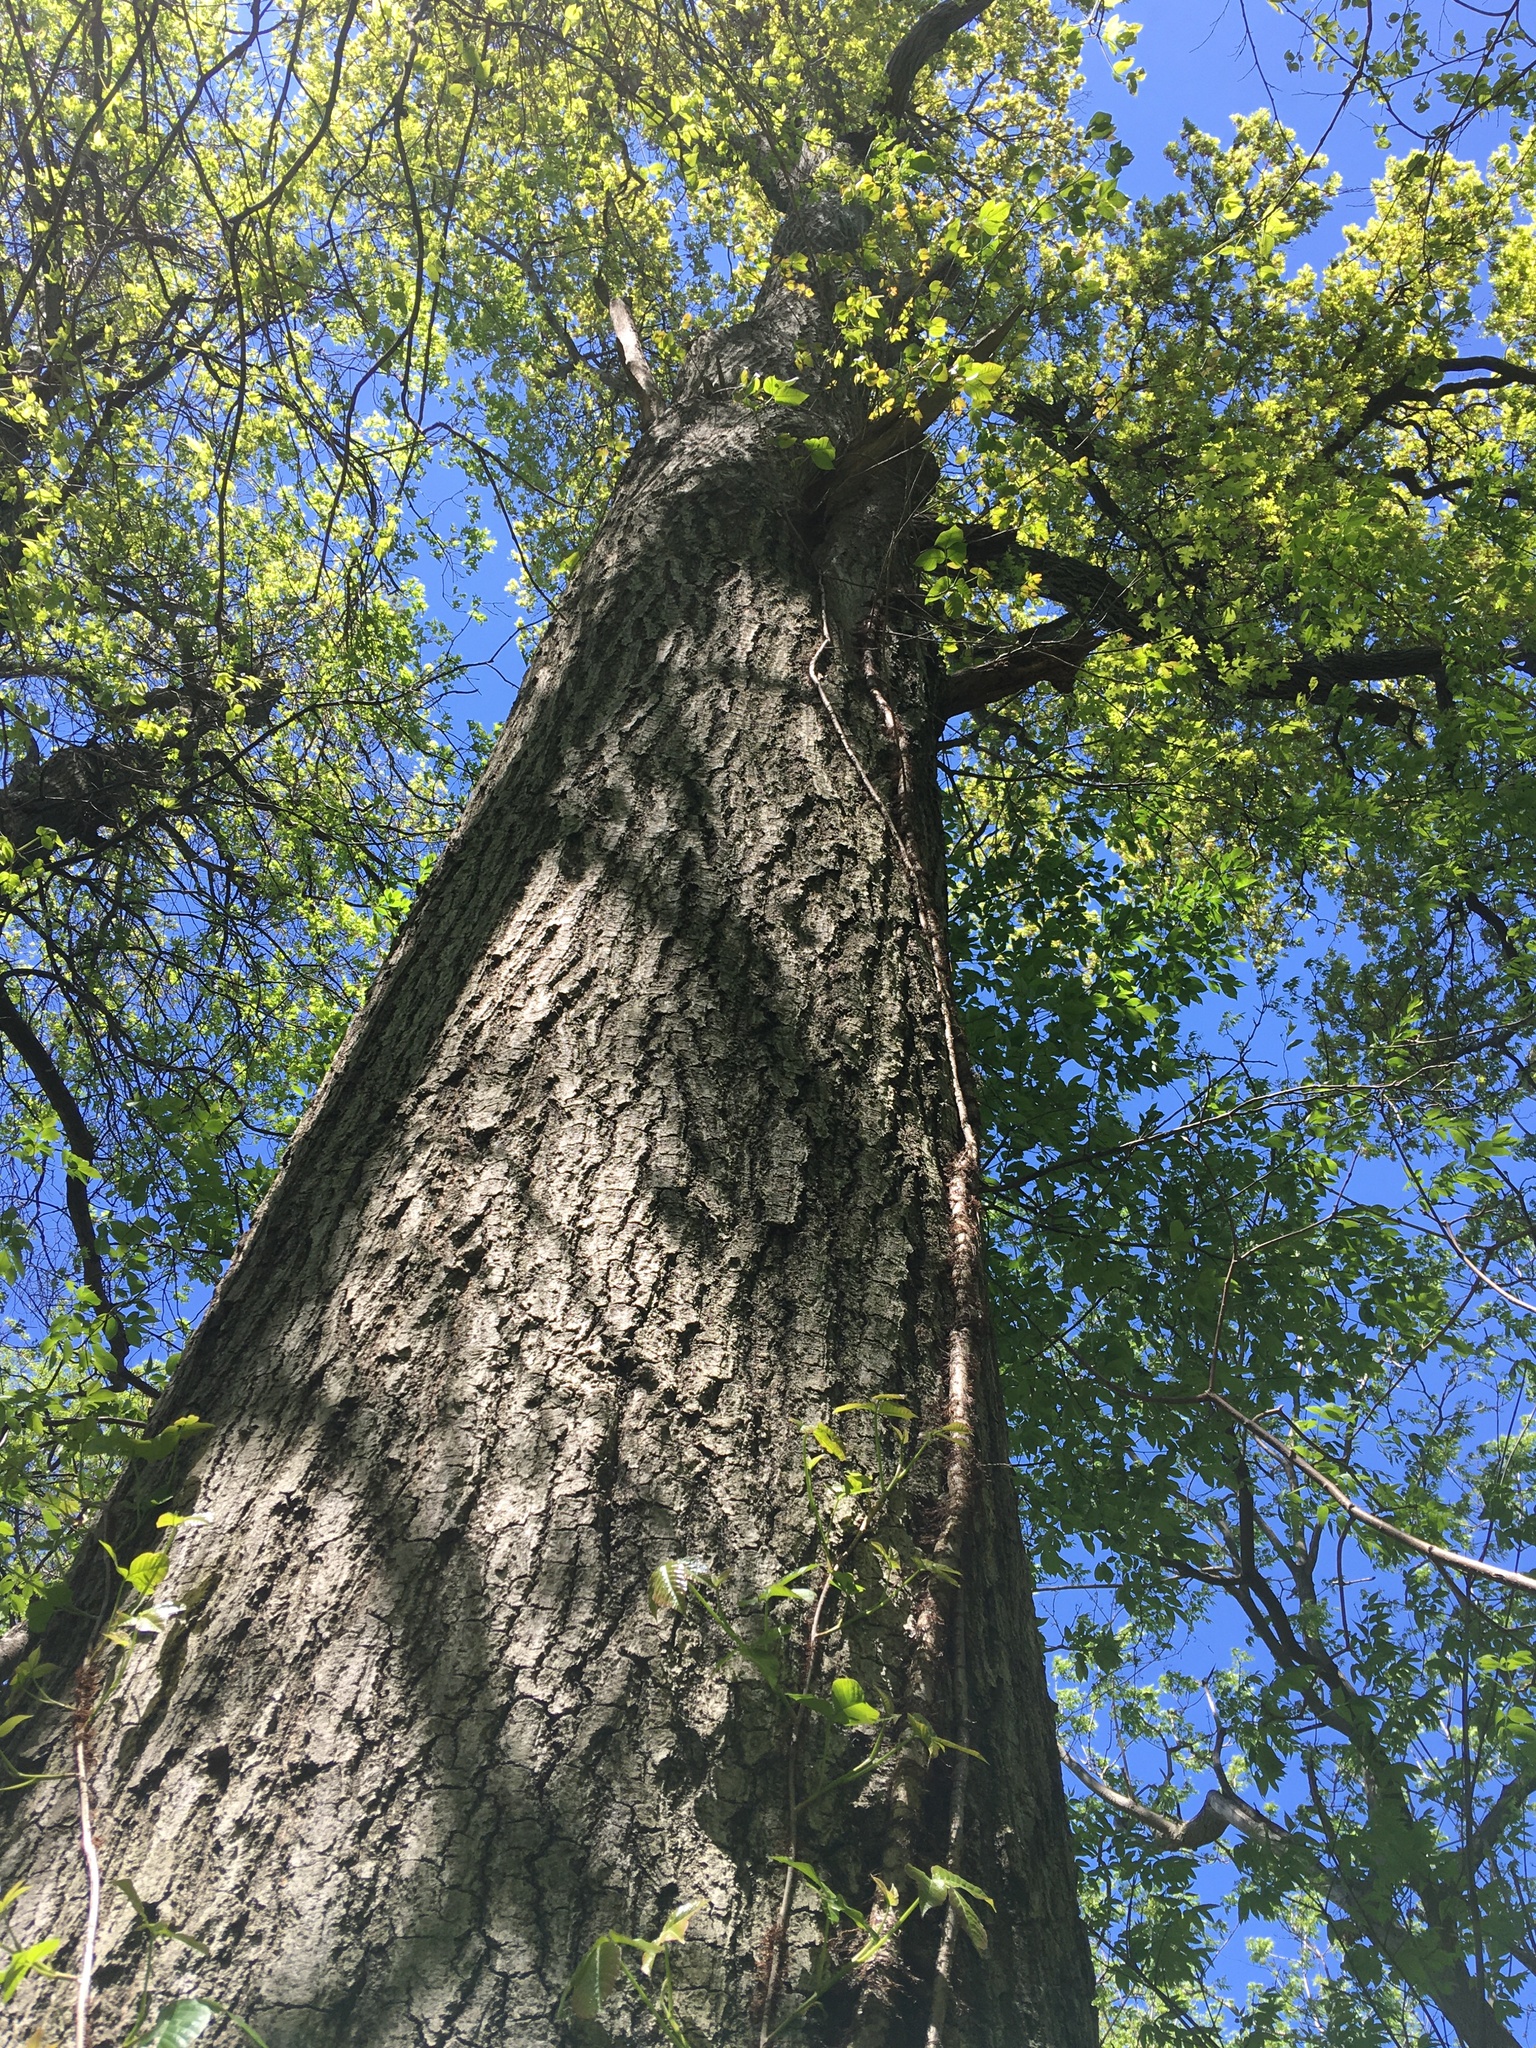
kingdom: Plantae
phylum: Tracheophyta
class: Magnoliopsida
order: Fagales
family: Fagaceae
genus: Quercus
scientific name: Quercus rubra
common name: Red oak
